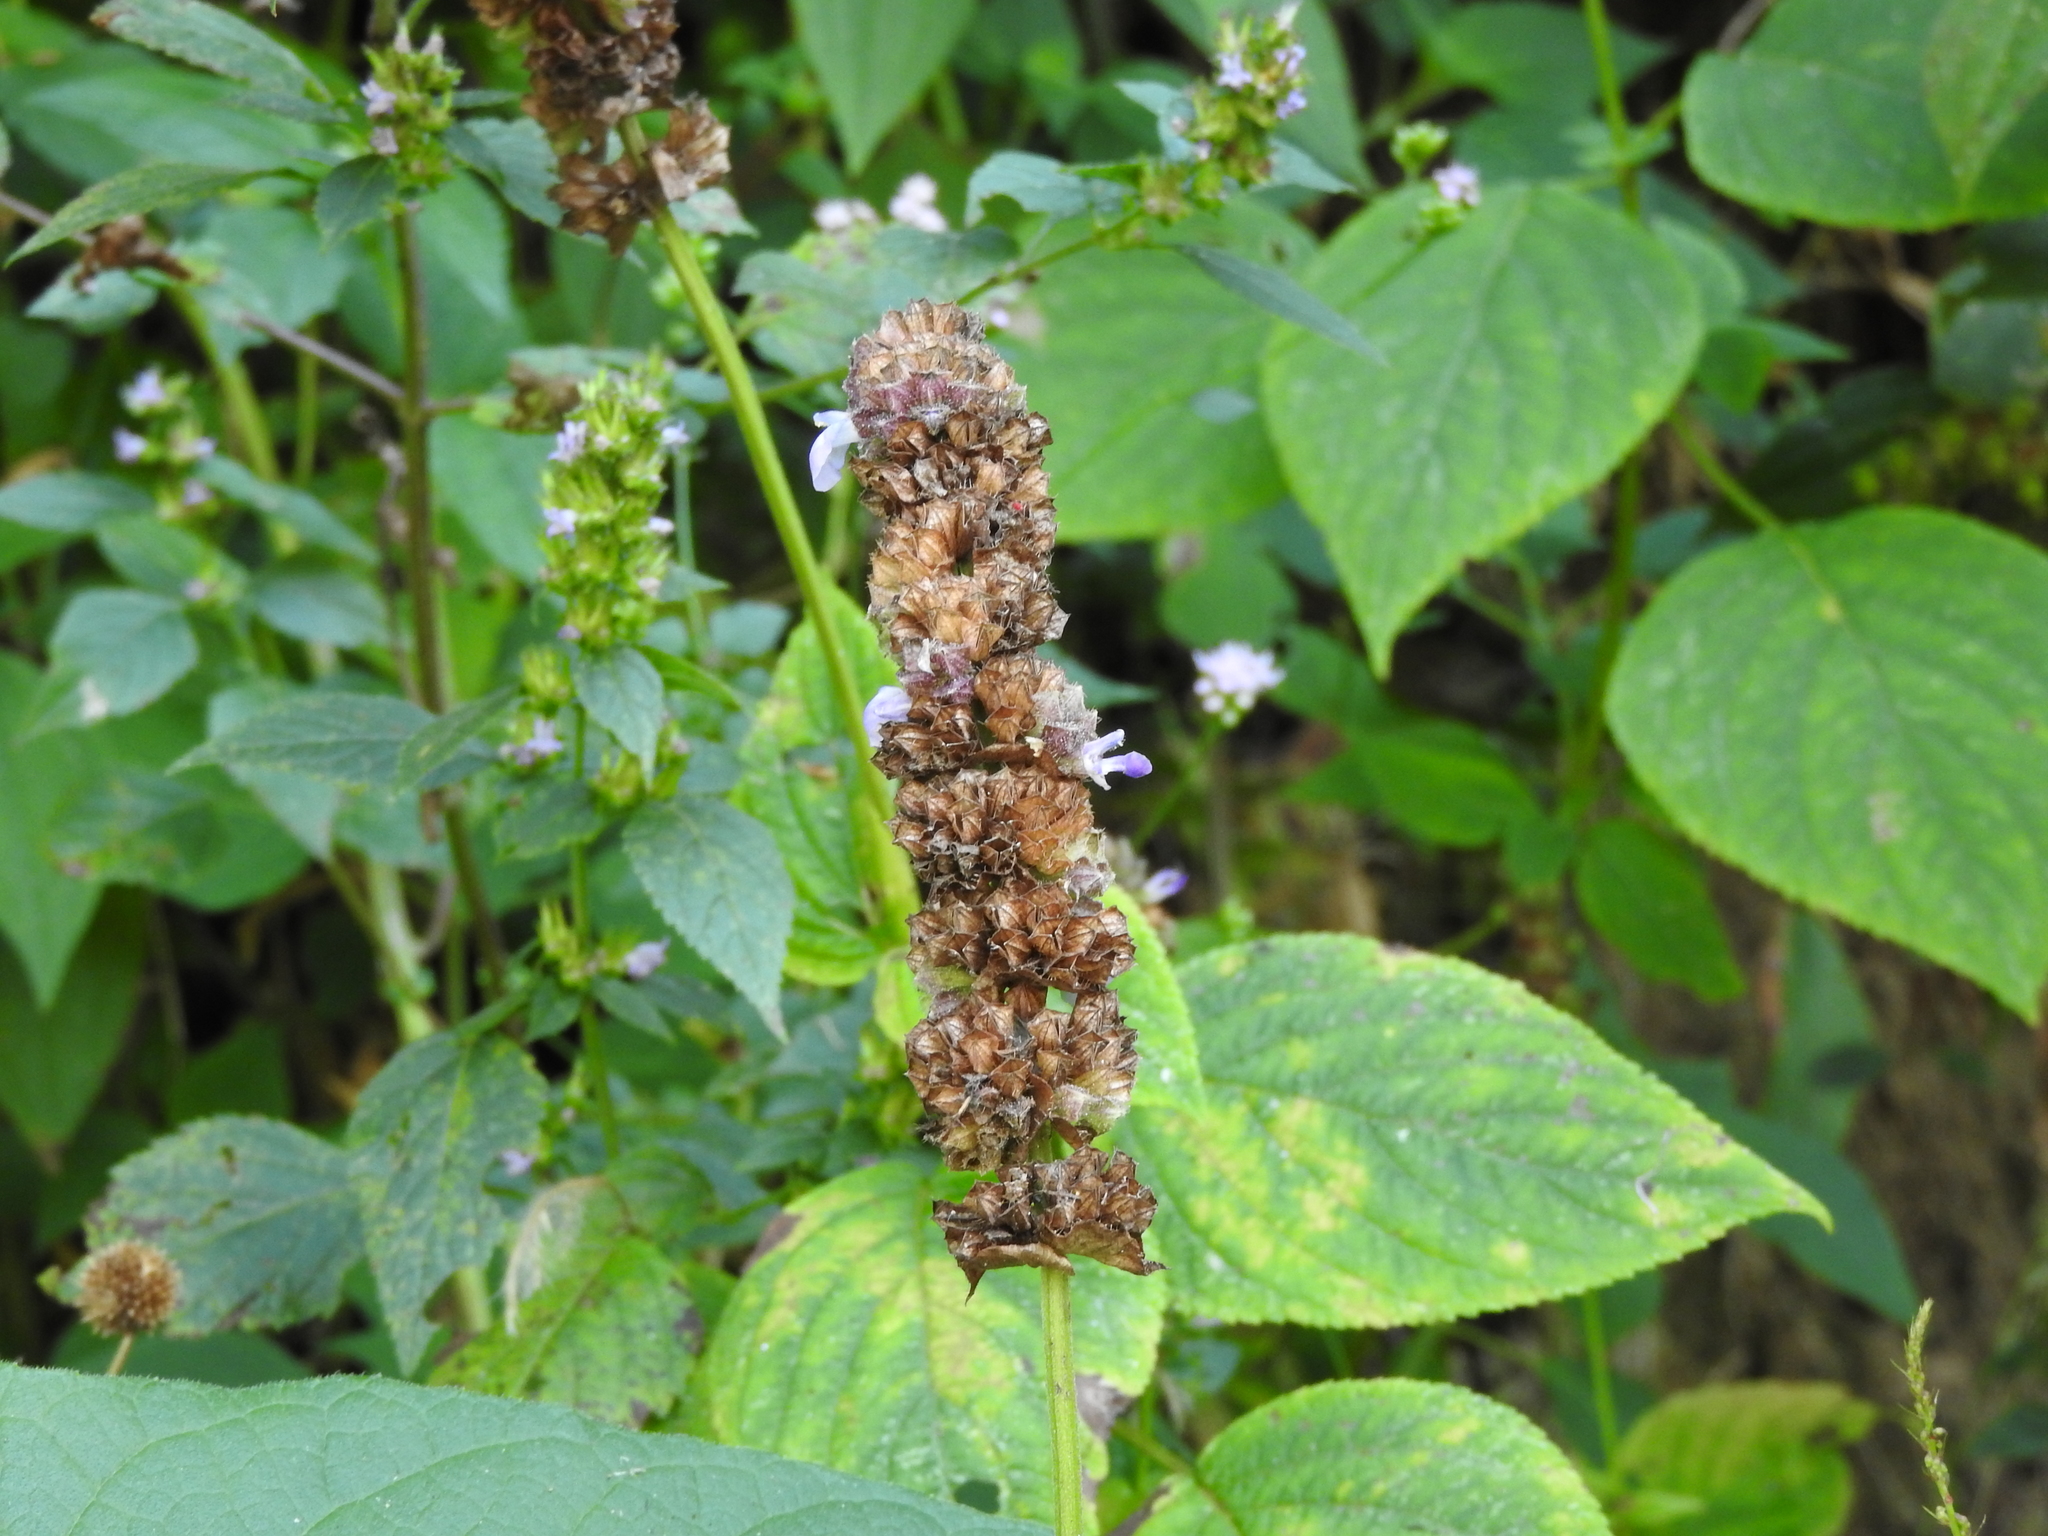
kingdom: Plantae
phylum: Tracheophyta
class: Magnoliopsida
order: Lamiales
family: Lamiaceae
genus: Salvia
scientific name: Salvia mocinoi
